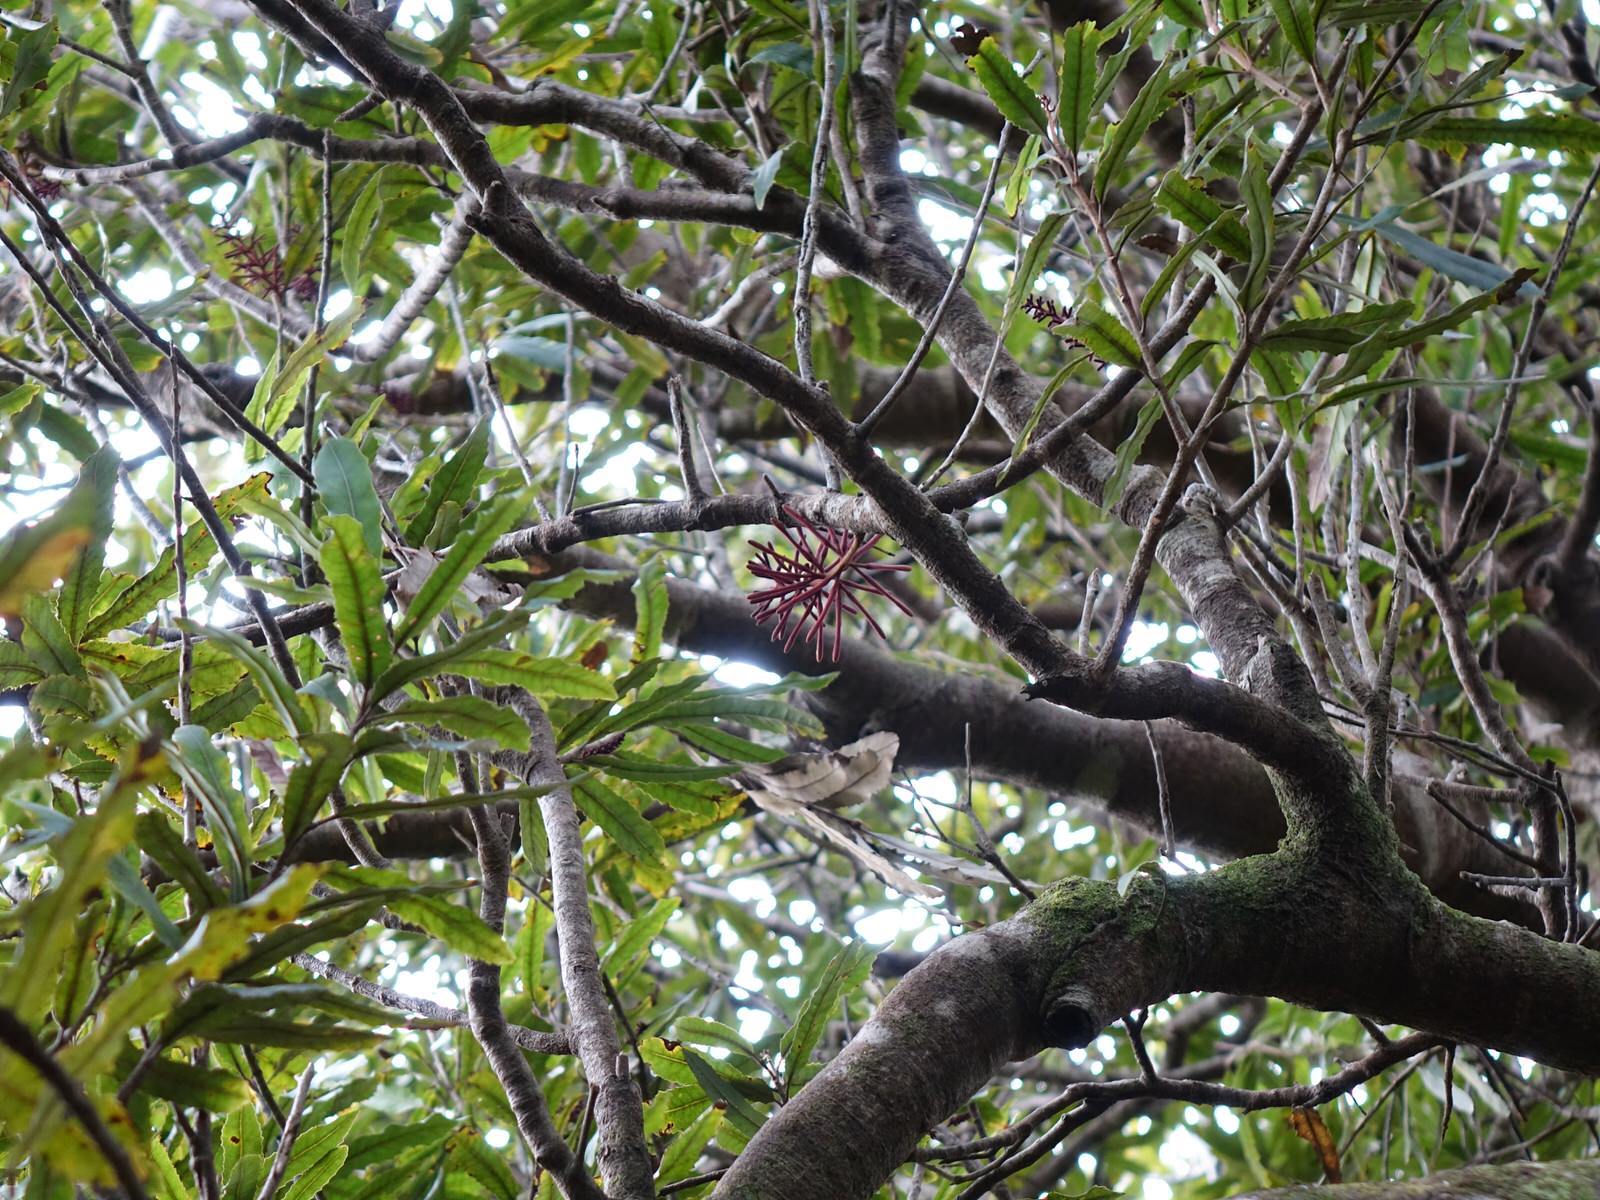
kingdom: Plantae
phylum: Tracheophyta
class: Magnoliopsida
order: Proteales
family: Proteaceae
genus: Knightia
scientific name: Knightia excelsa
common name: New zealand-honeysuckle
